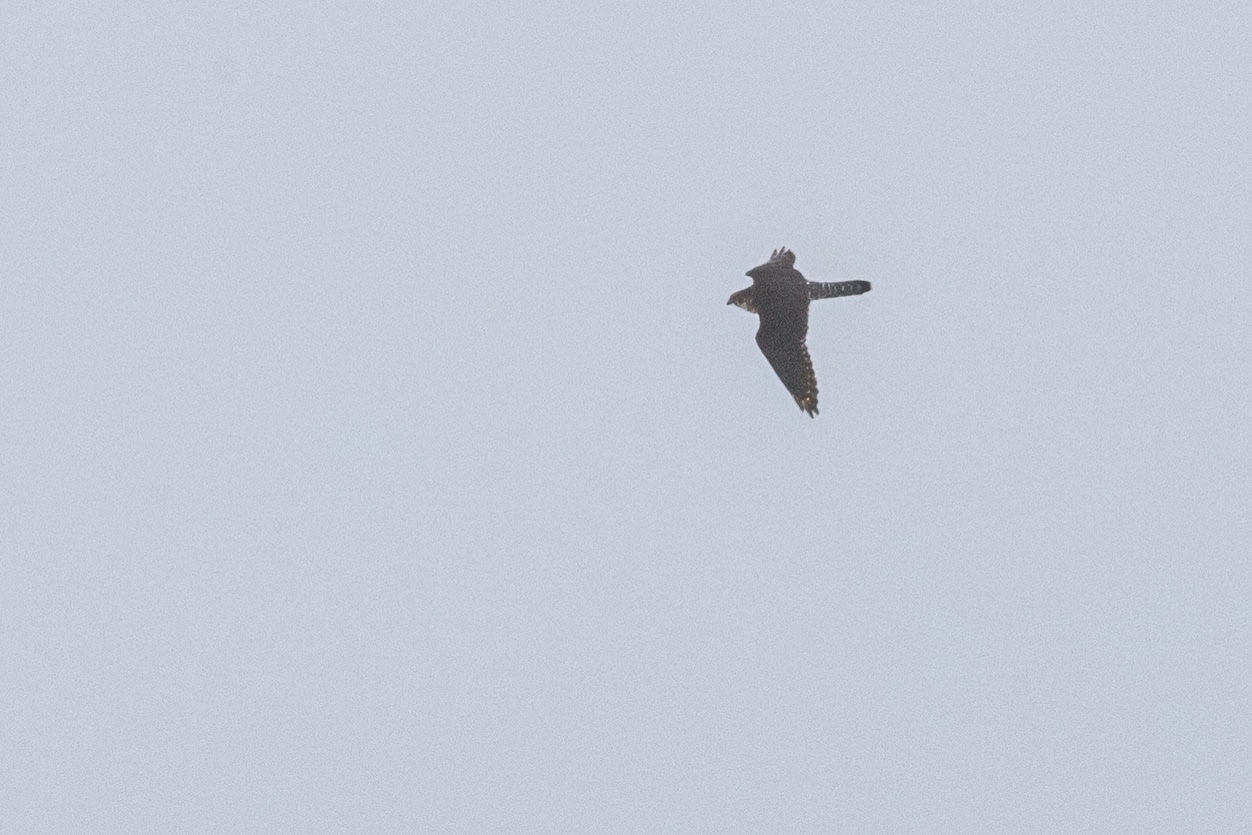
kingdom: Animalia
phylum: Chordata
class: Aves
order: Falconiformes
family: Falconidae
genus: Falco
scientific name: Falco columbarius
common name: Merlin
